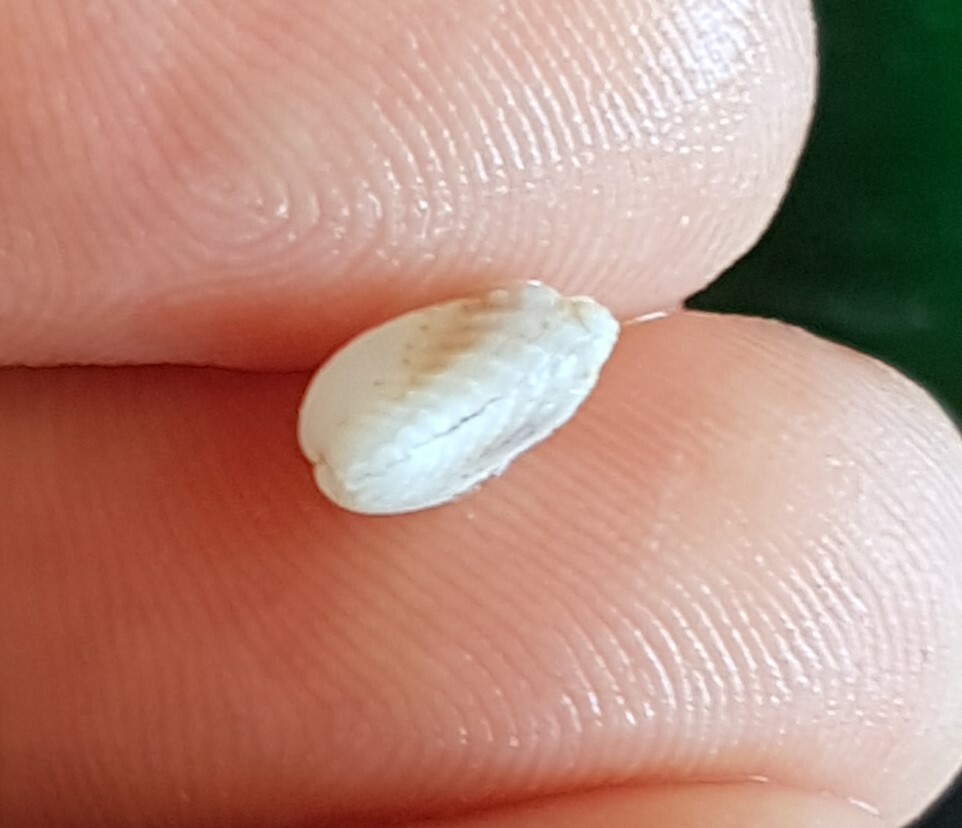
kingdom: Animalia
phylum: Mollusca
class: Bivalvia
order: Carditida
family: Carditidae
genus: Cardita
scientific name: Cardita calyculata
